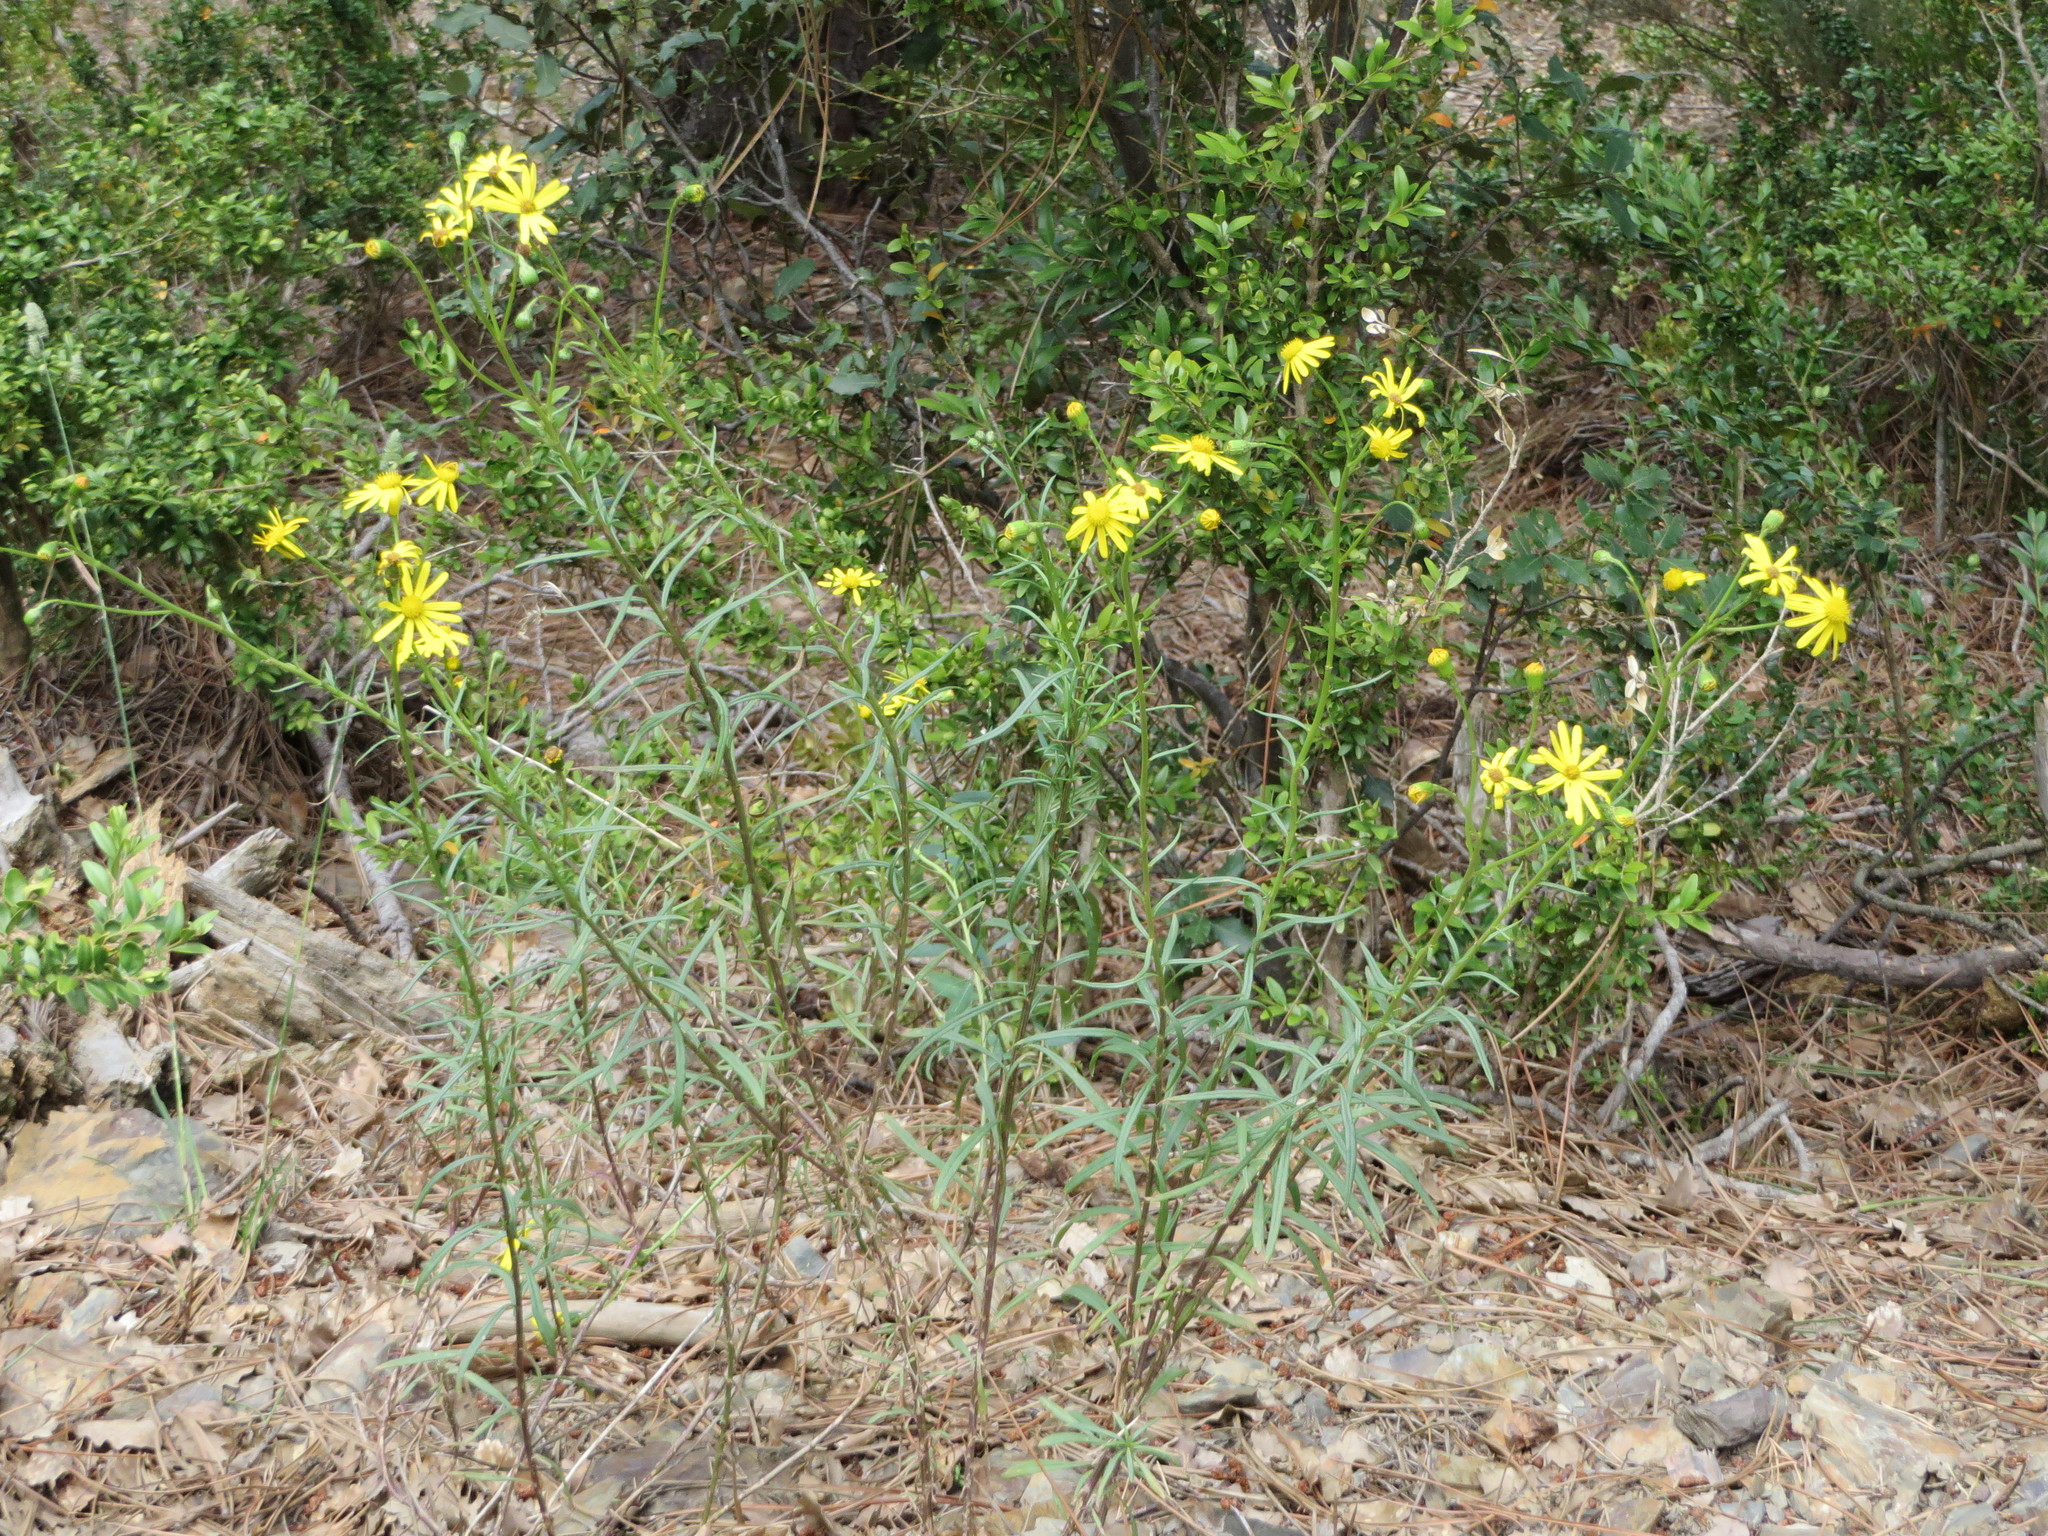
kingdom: Plantae
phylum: Tracheophyta
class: Magnoliopsida
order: Asterales
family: Asteraceae
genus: Senecio
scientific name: Senecio inaequidens
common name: Narrow-leaved ragwort
